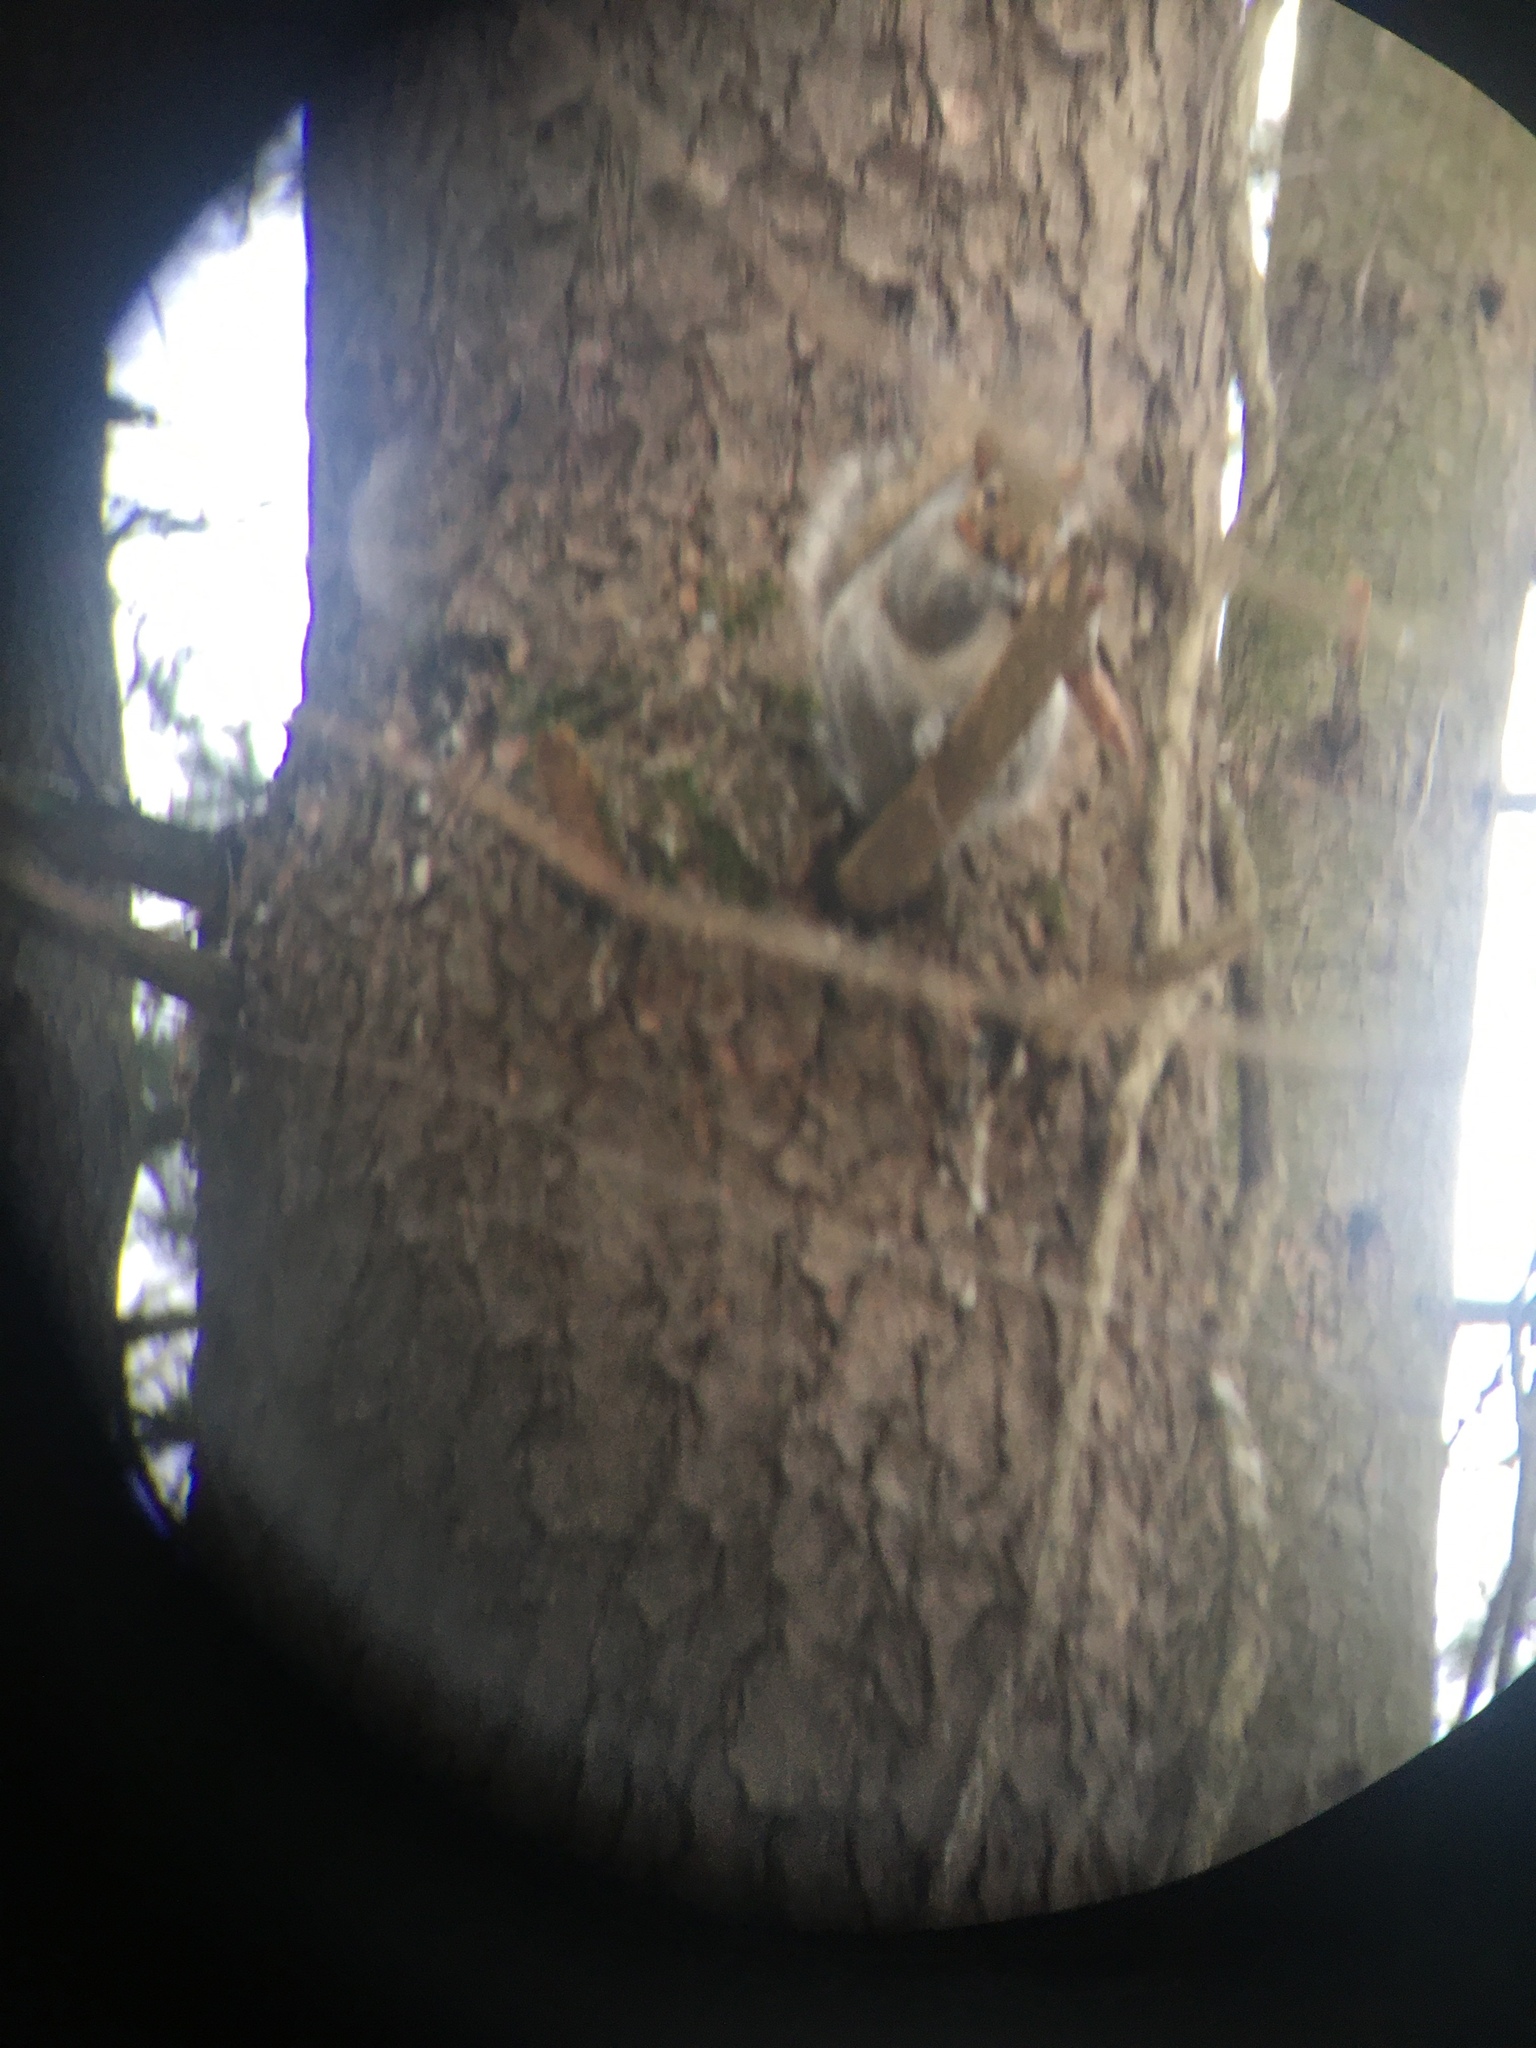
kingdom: Animalia
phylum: Chordata
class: Mammalia
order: Rodentia
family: Sciuridae
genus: Sciurus
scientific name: Sciurus carolinensis
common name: Eastern gray squirrel
